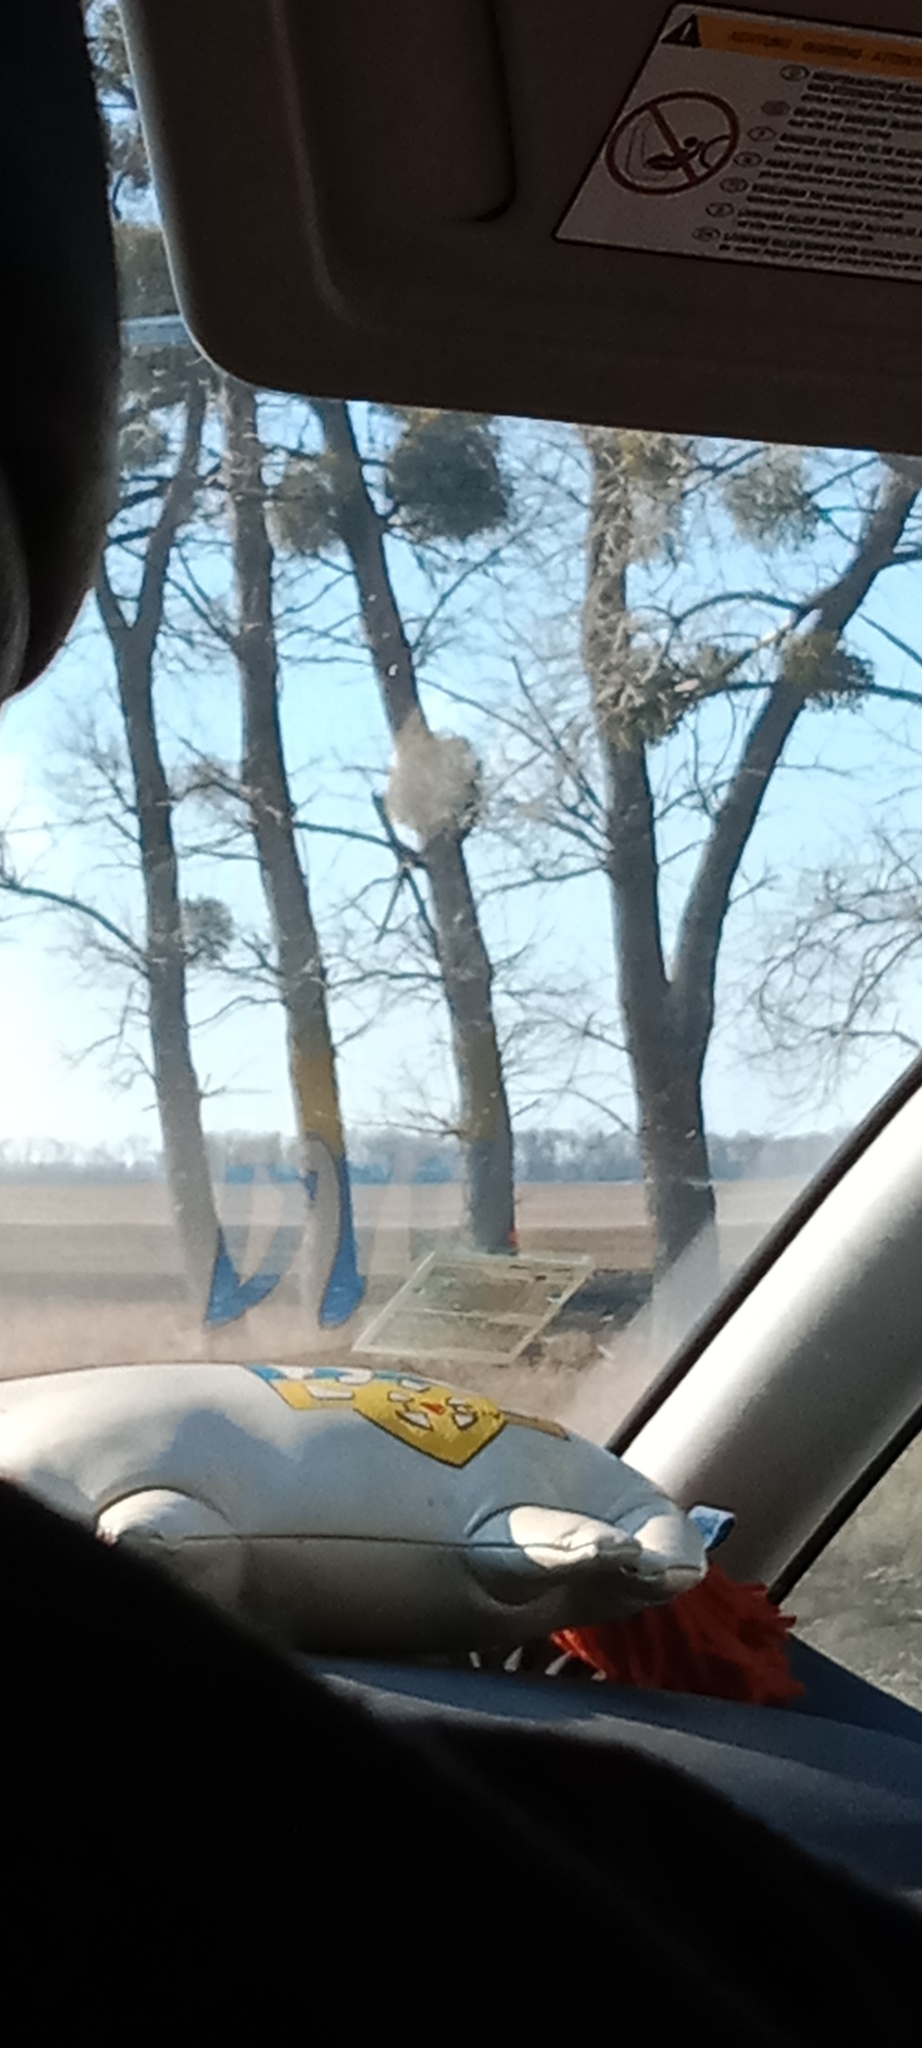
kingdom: Plantae
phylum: Tracheophyta
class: Magnoliopsida
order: Santalales
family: Viscaceae
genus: Viscum
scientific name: Viscum album
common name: Mistletoe
